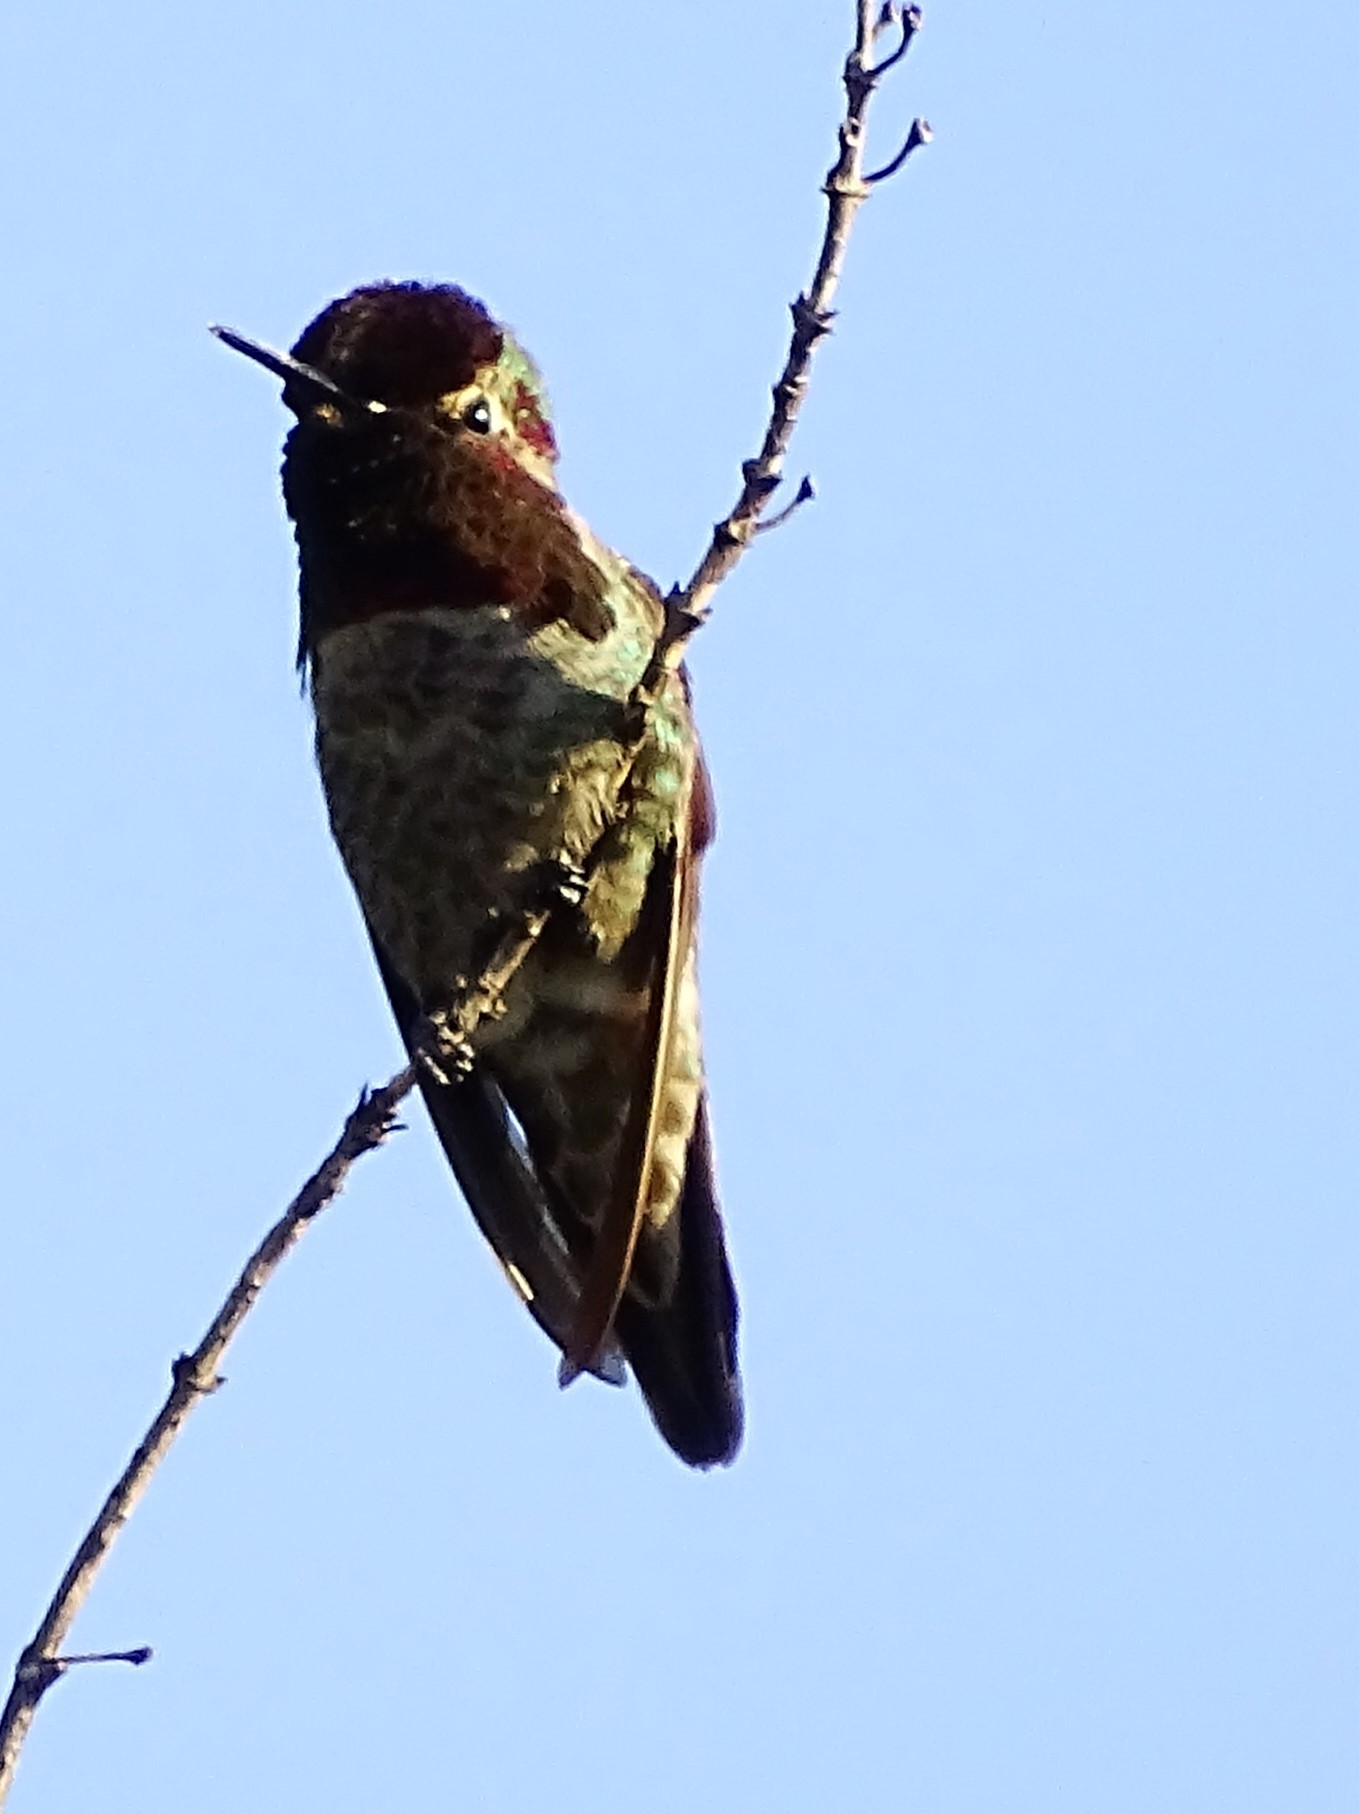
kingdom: Animalia
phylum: Chordata
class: Aves
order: Apodiformes
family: Trochilidae
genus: Calypte
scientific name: Calypte anna
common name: Anna's hummingbird
